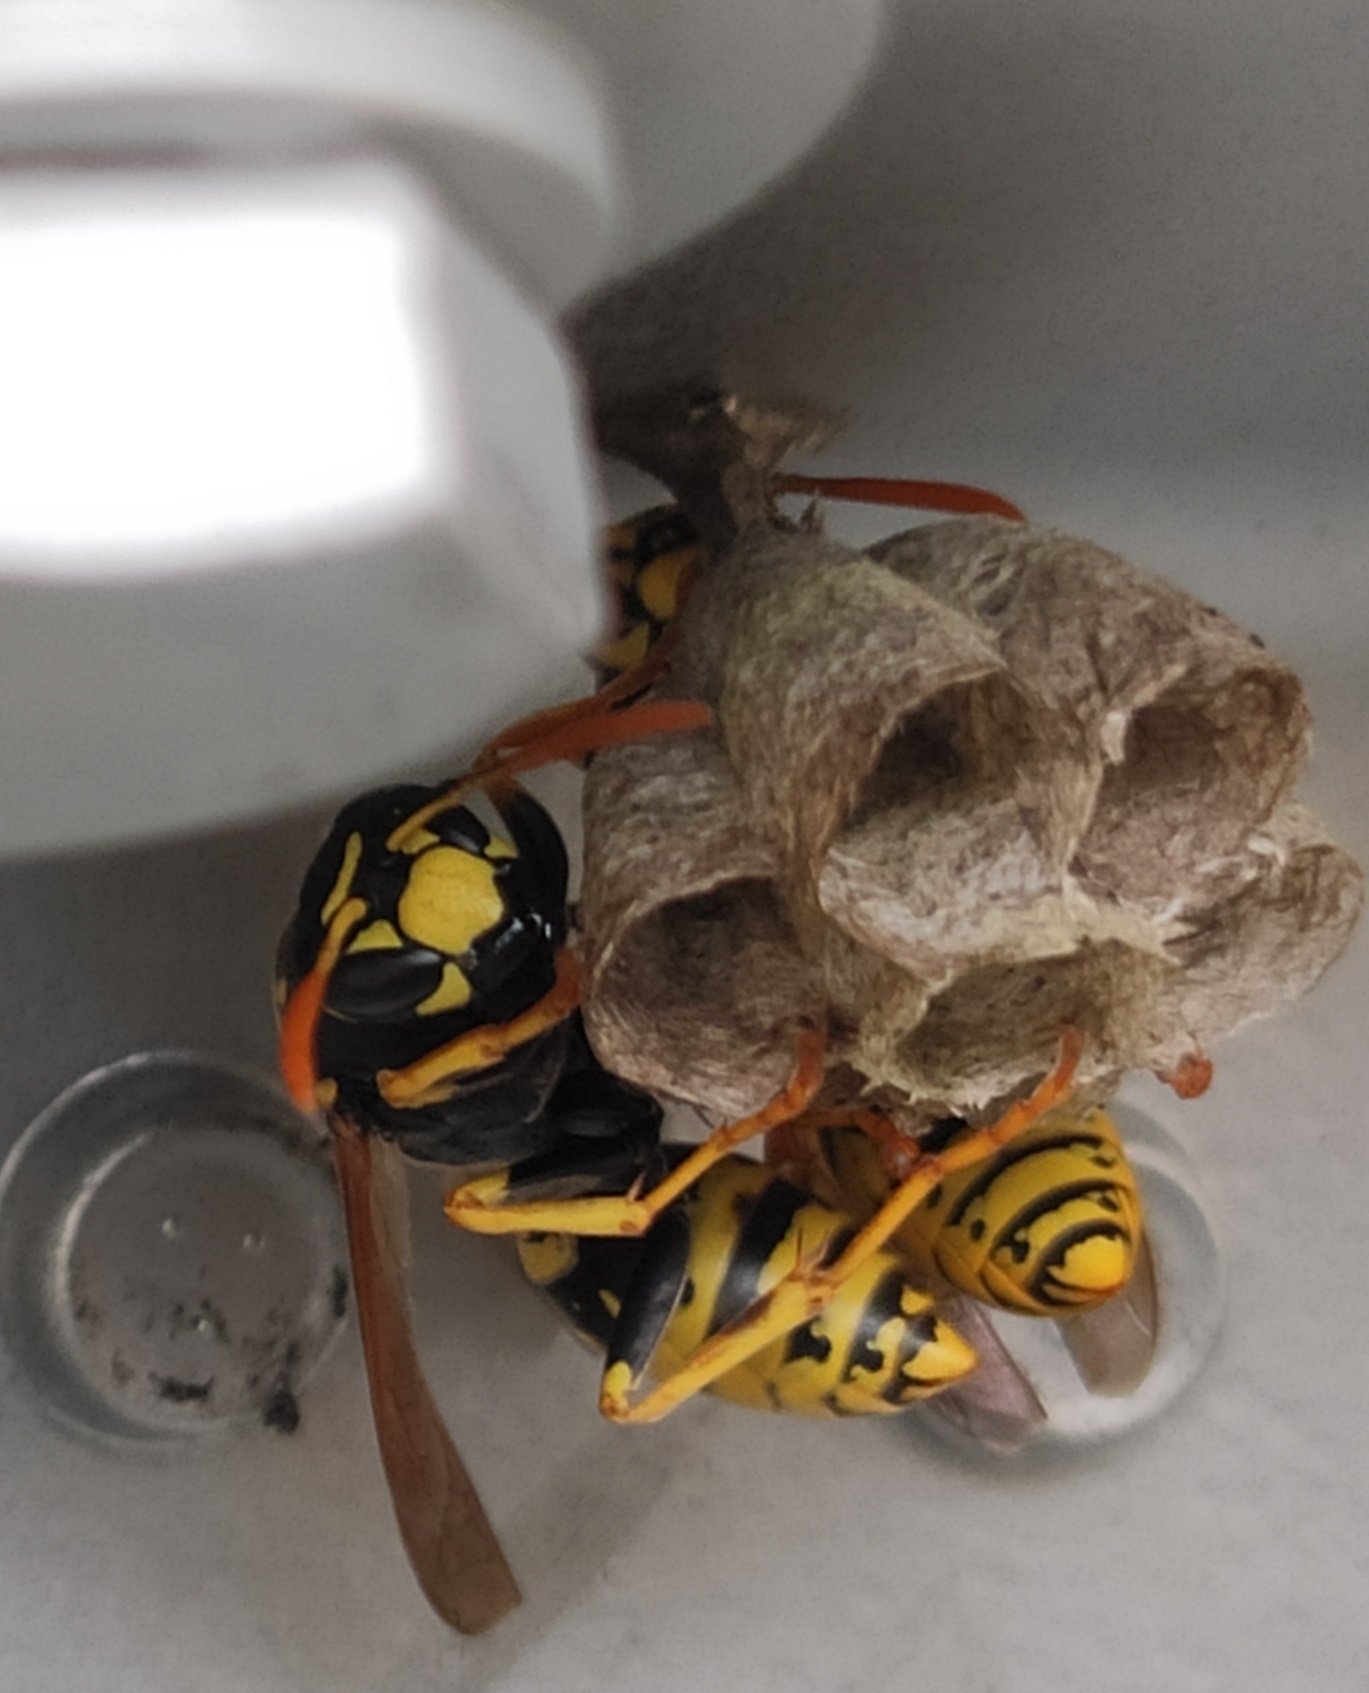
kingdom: Animalia
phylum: Arthropoda
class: Insecta
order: Hymenoptera
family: Eumenidae
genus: Polistes
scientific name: Polistes dominula
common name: Paper wasp
